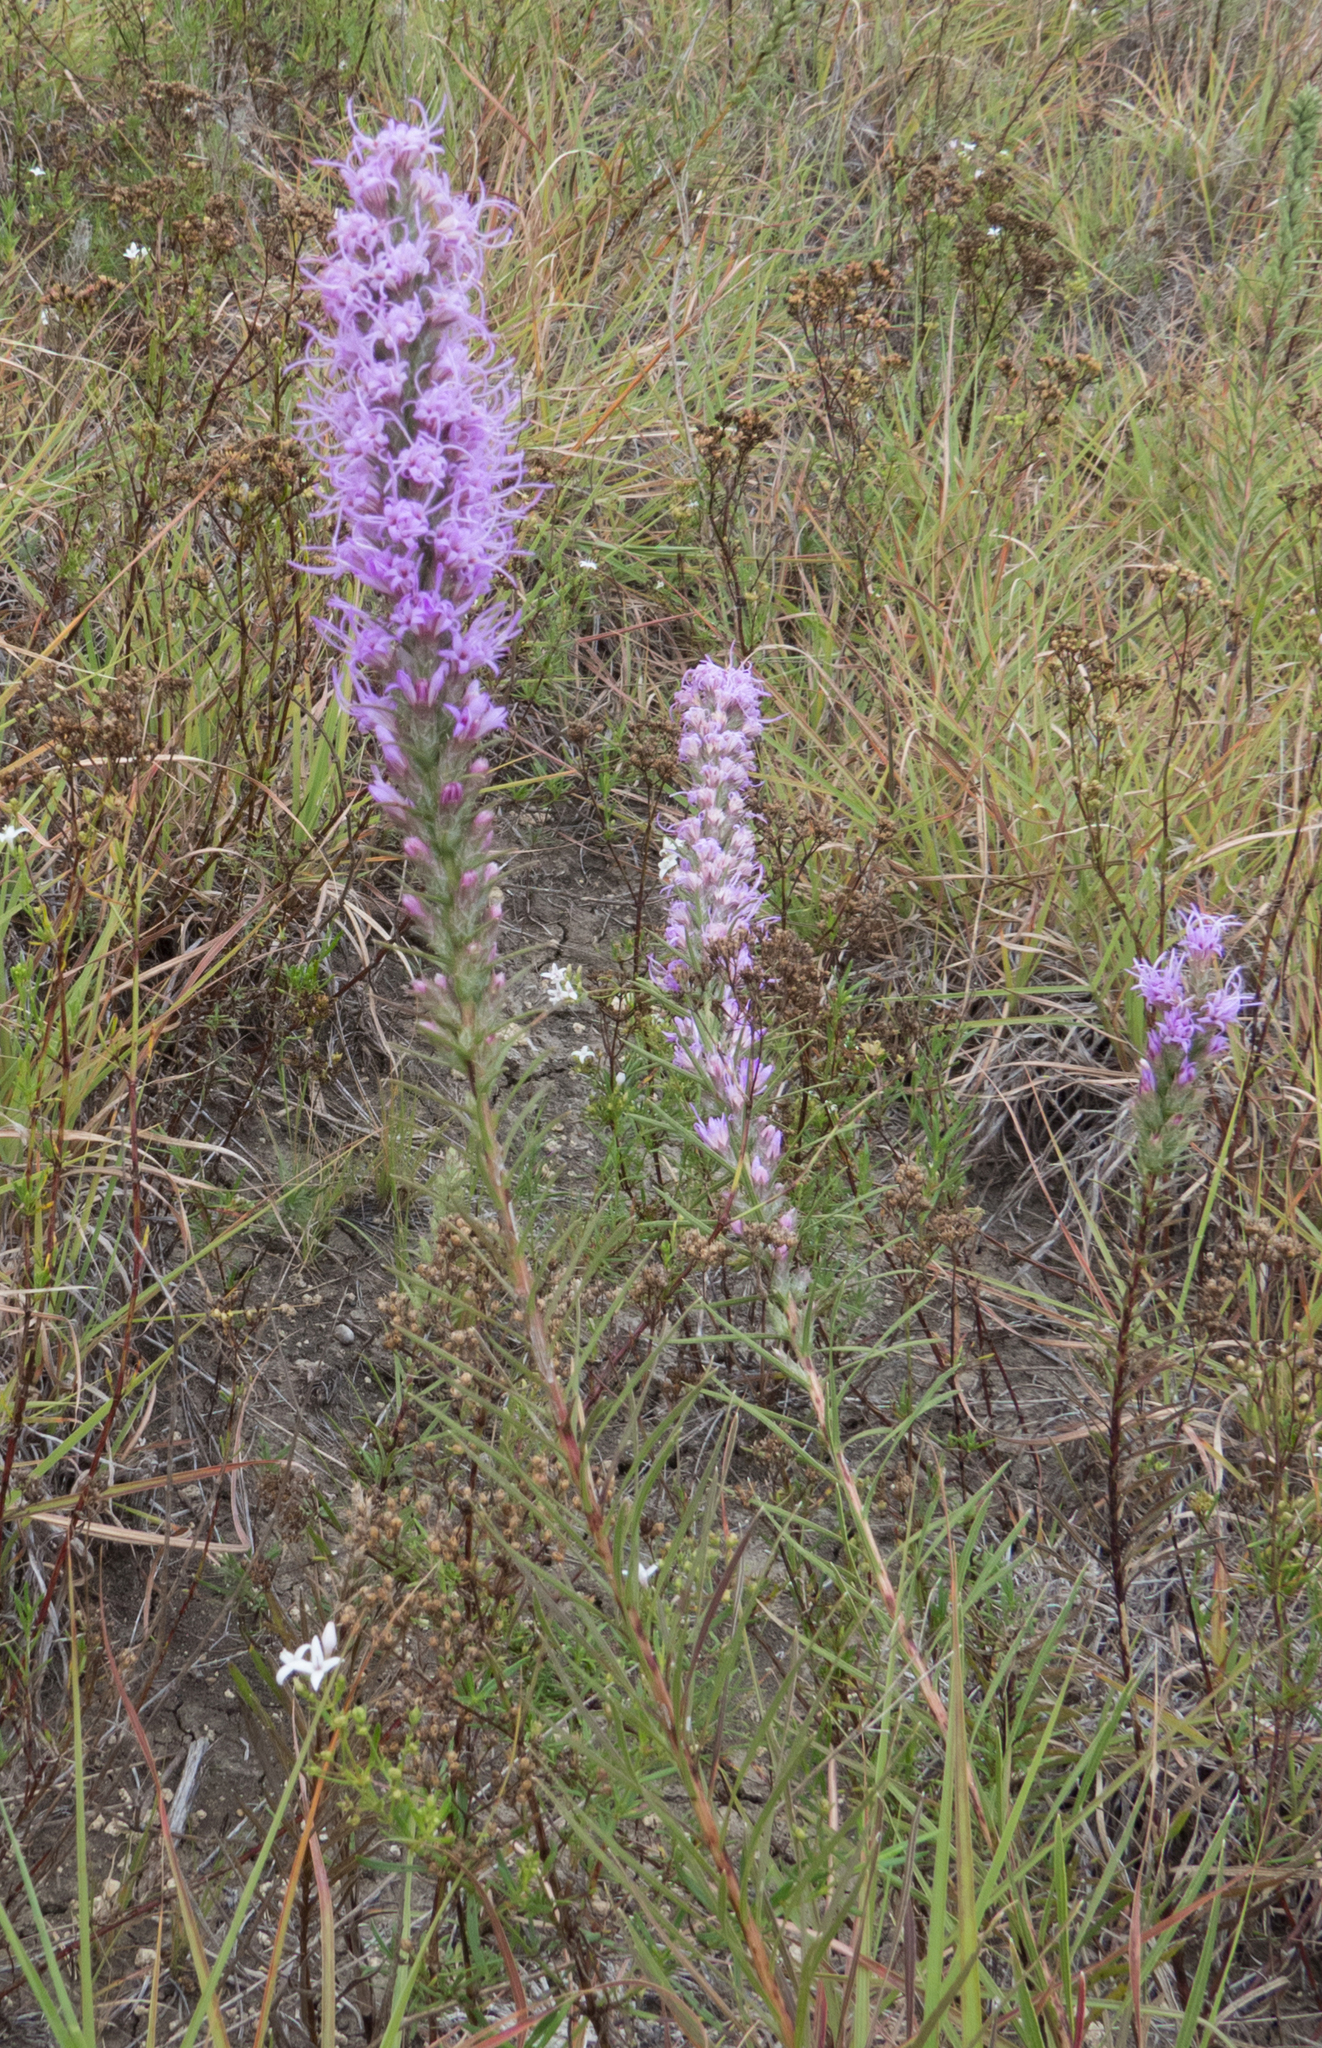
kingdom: Plantae
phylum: Tracheophyta
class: Magnoliopsida
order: Asterales
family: Asteraceae
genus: Liatris
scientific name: Liatris punctata
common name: Dotted gayfeather
